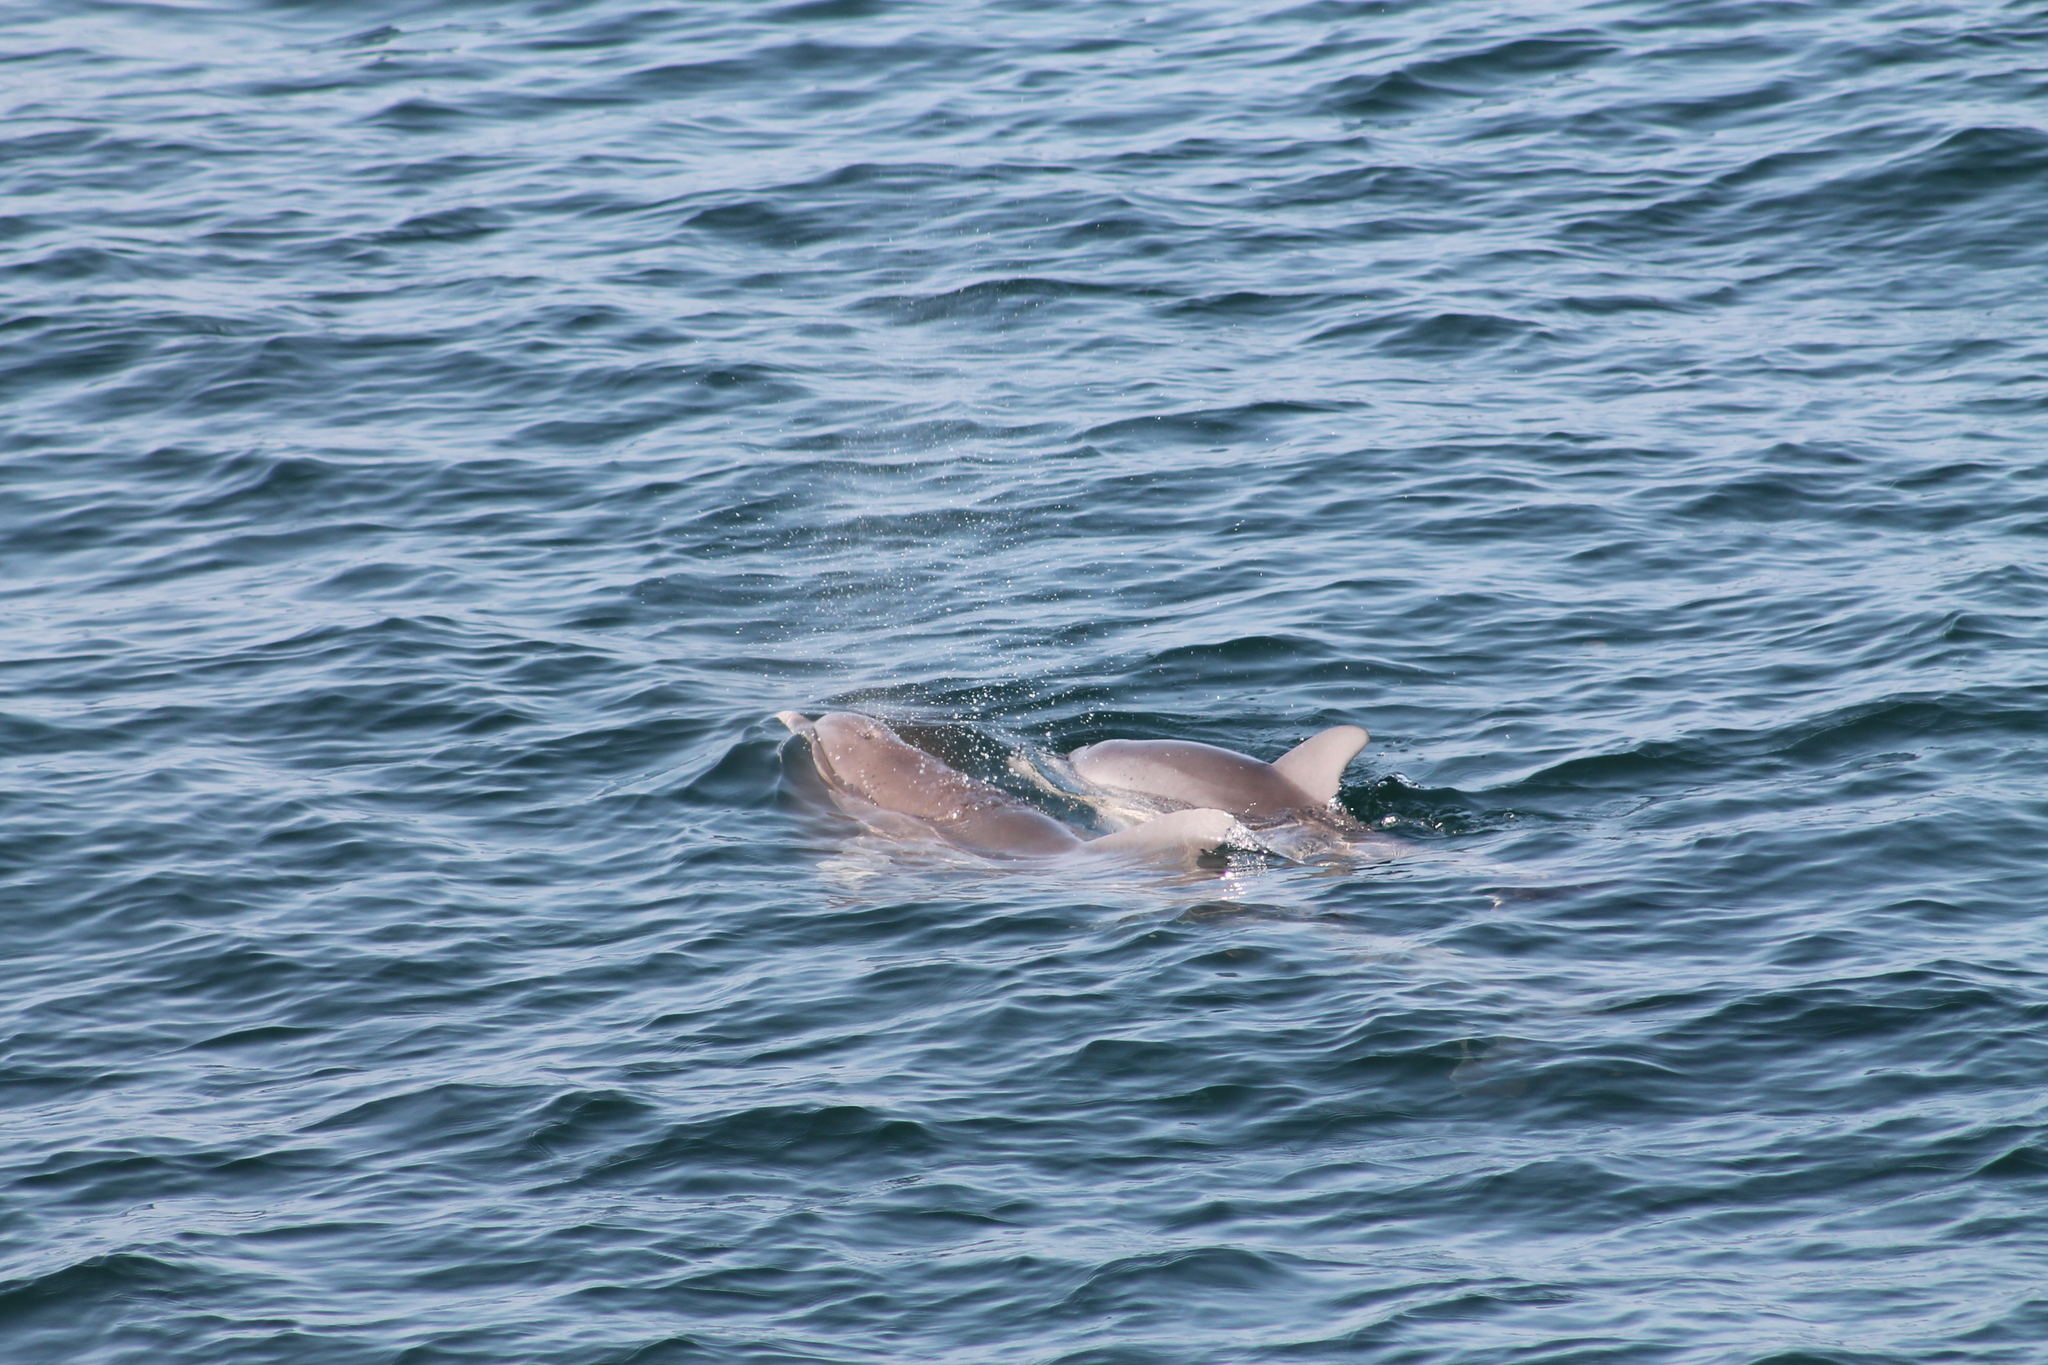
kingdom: Animalia
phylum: Chordata
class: Mammalia
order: Cetacea
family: Delphinidae
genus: Tursiops
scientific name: Tursiops truncatus
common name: Bottlenose dolphin
